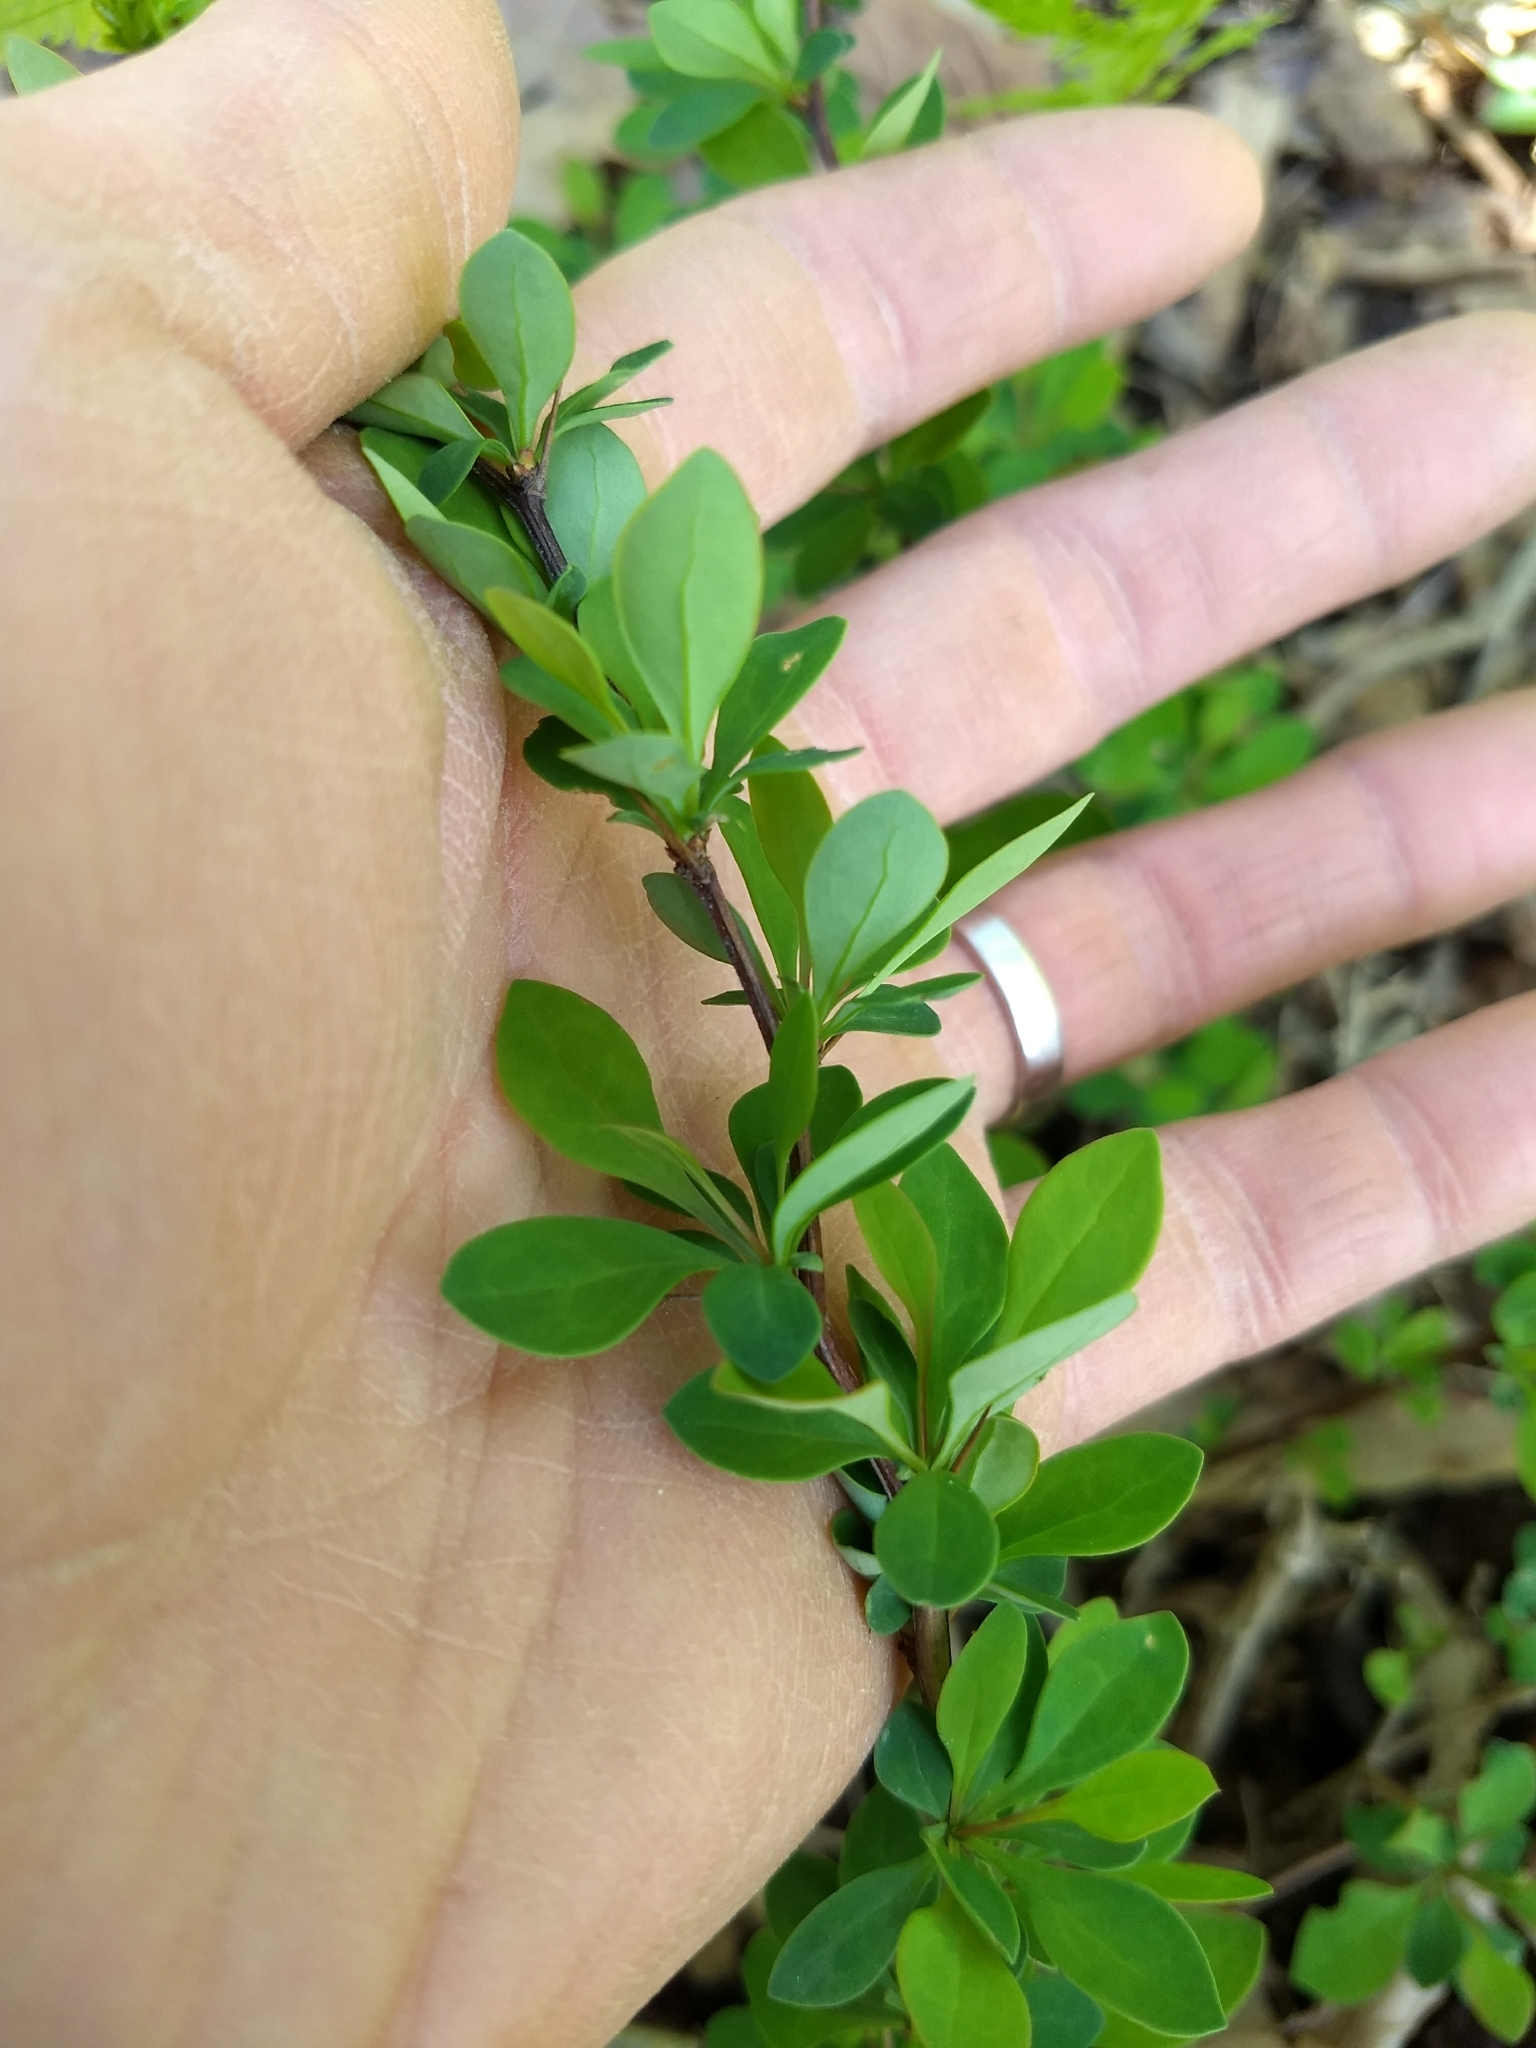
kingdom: Plantae
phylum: Tracheophyta
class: Magnoliopsida
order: Ranunculales
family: Berberidaceae
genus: Berberis
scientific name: Berberis thunbergii
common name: Japanese barberry
